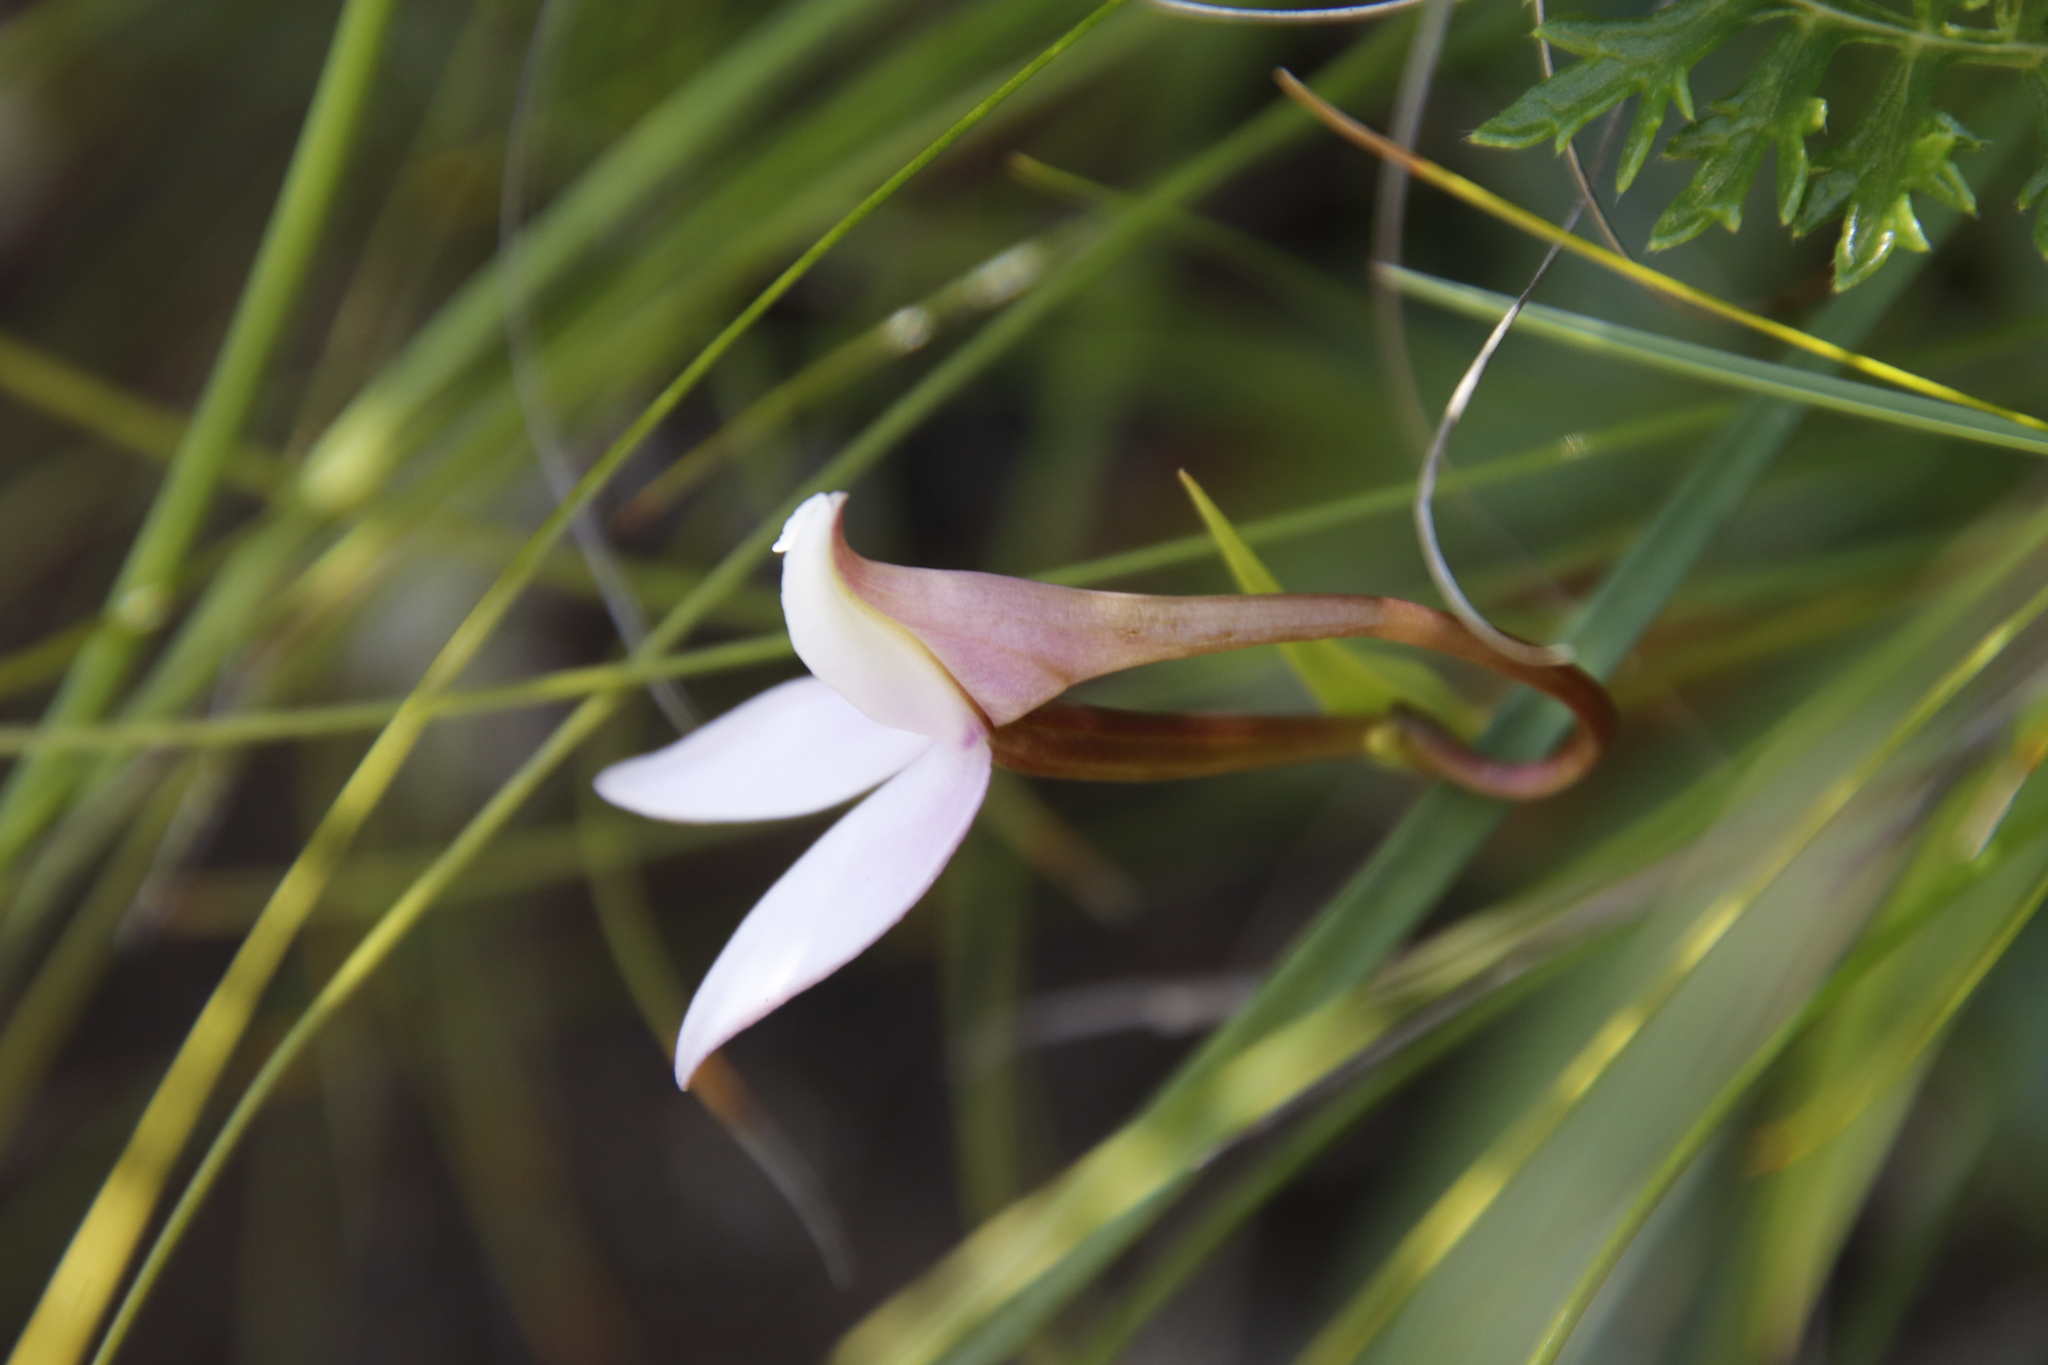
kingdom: Plantae
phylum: Tracheophyta
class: Liliopsida
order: Asparagales
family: Orchidaceae
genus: Brownleea
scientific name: Brownleea macroceras
